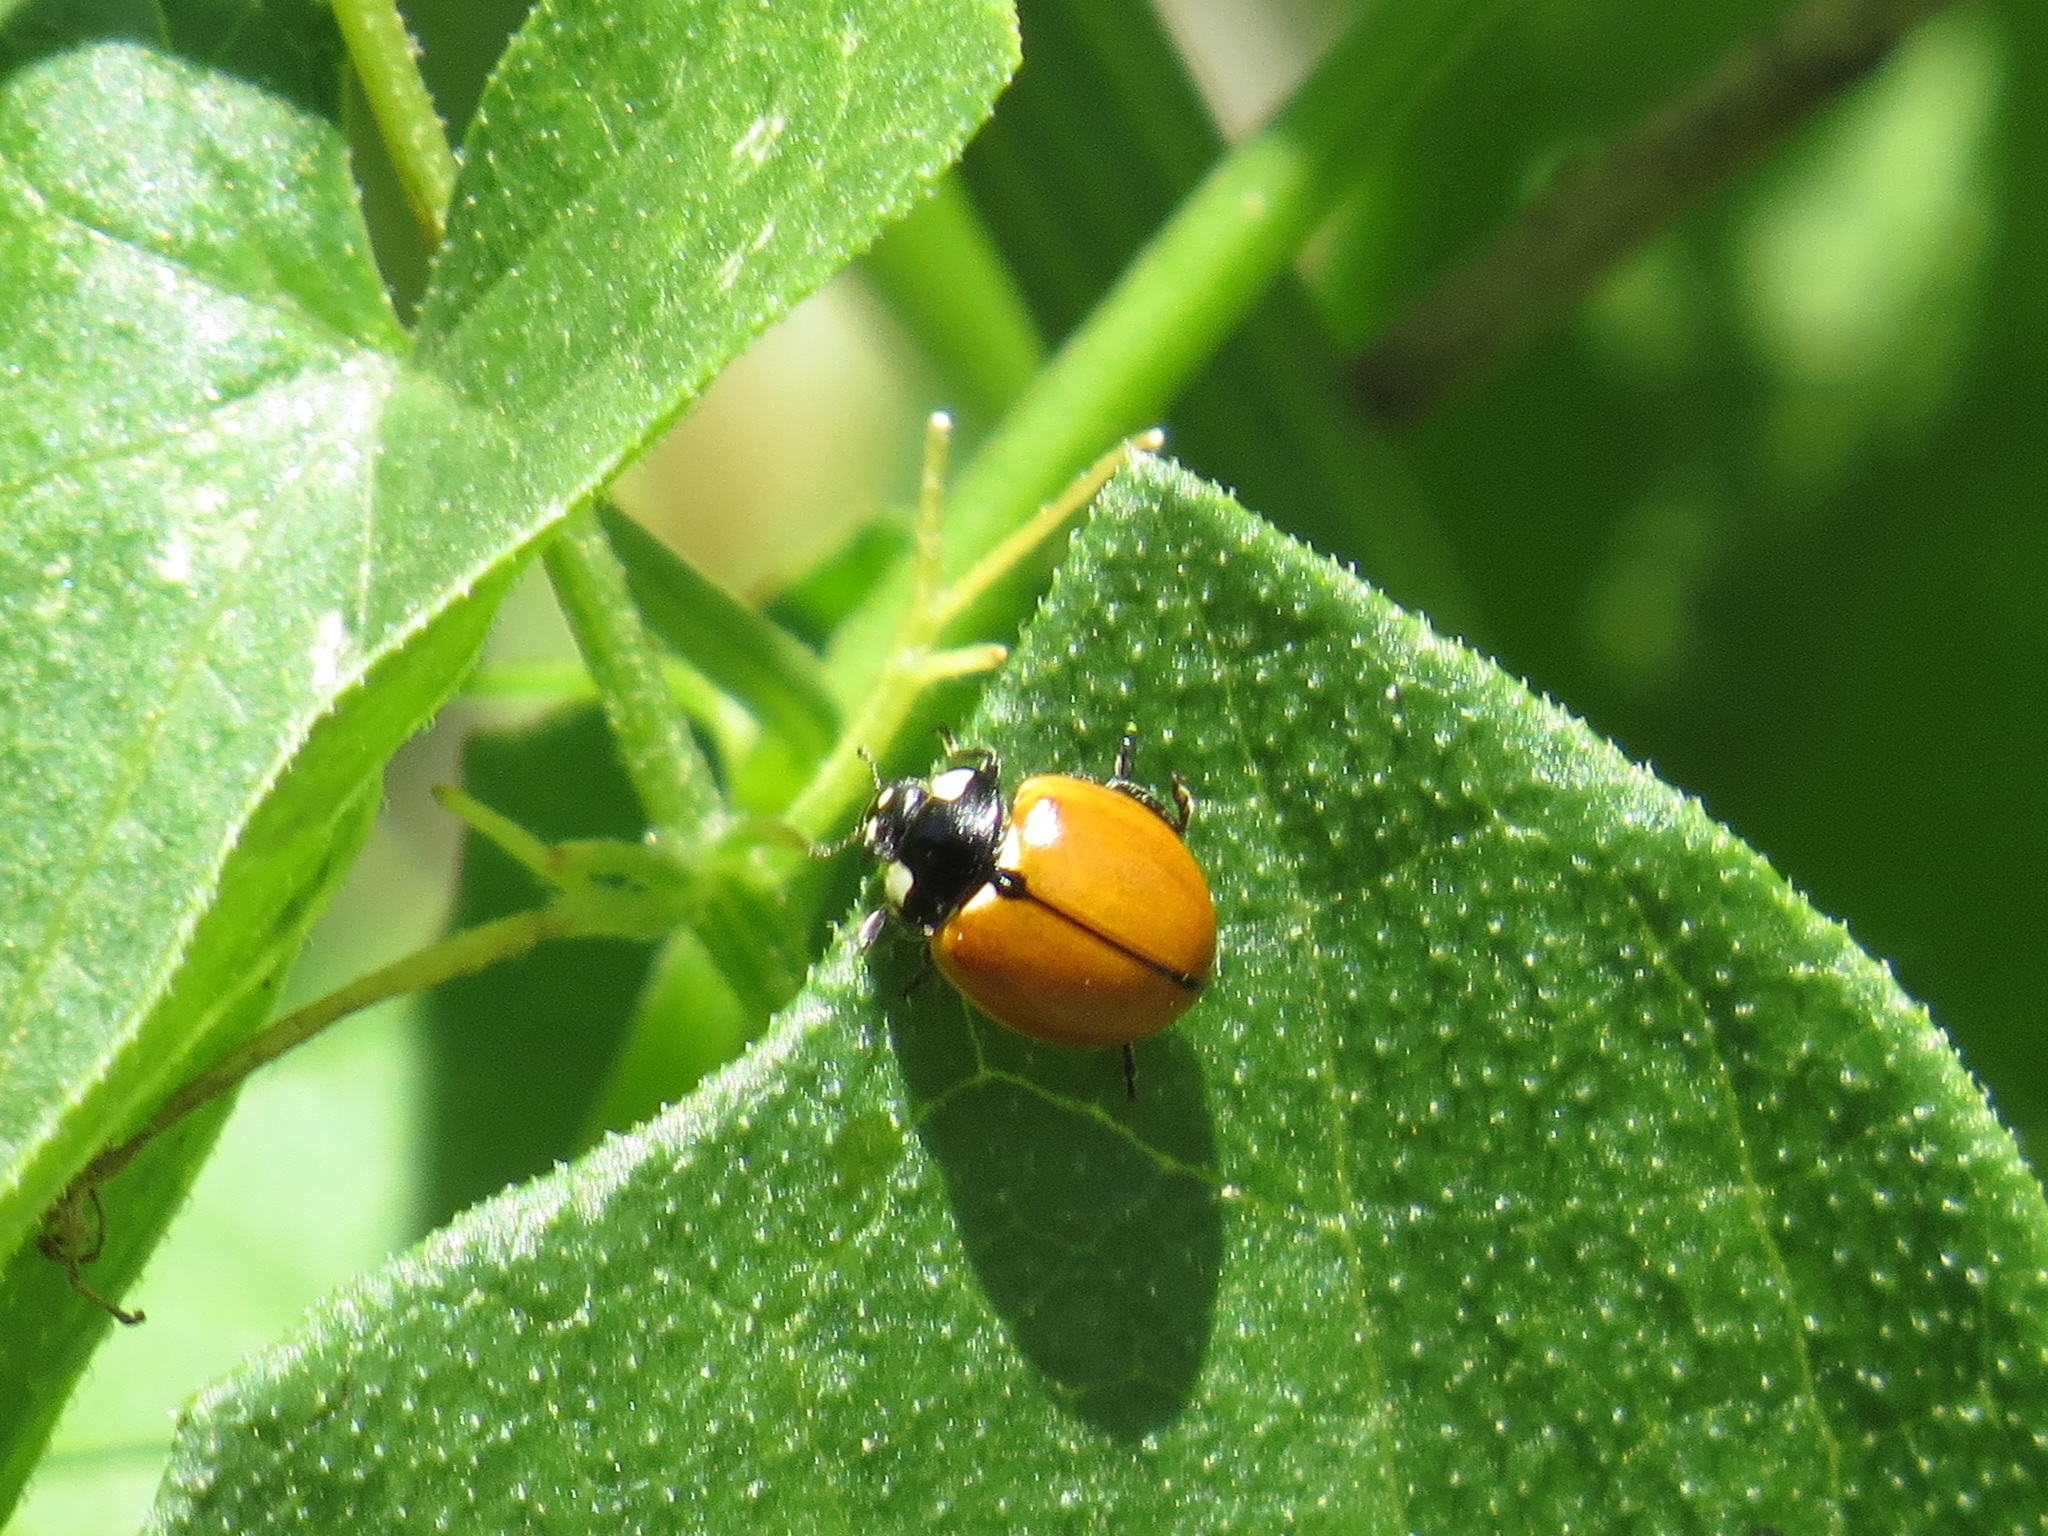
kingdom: Animalia
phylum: Arthropoda
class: Insecta
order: Coleoptera
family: Coccinellidae
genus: Coccinella
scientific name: Coccinella californica
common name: Lady beetle
